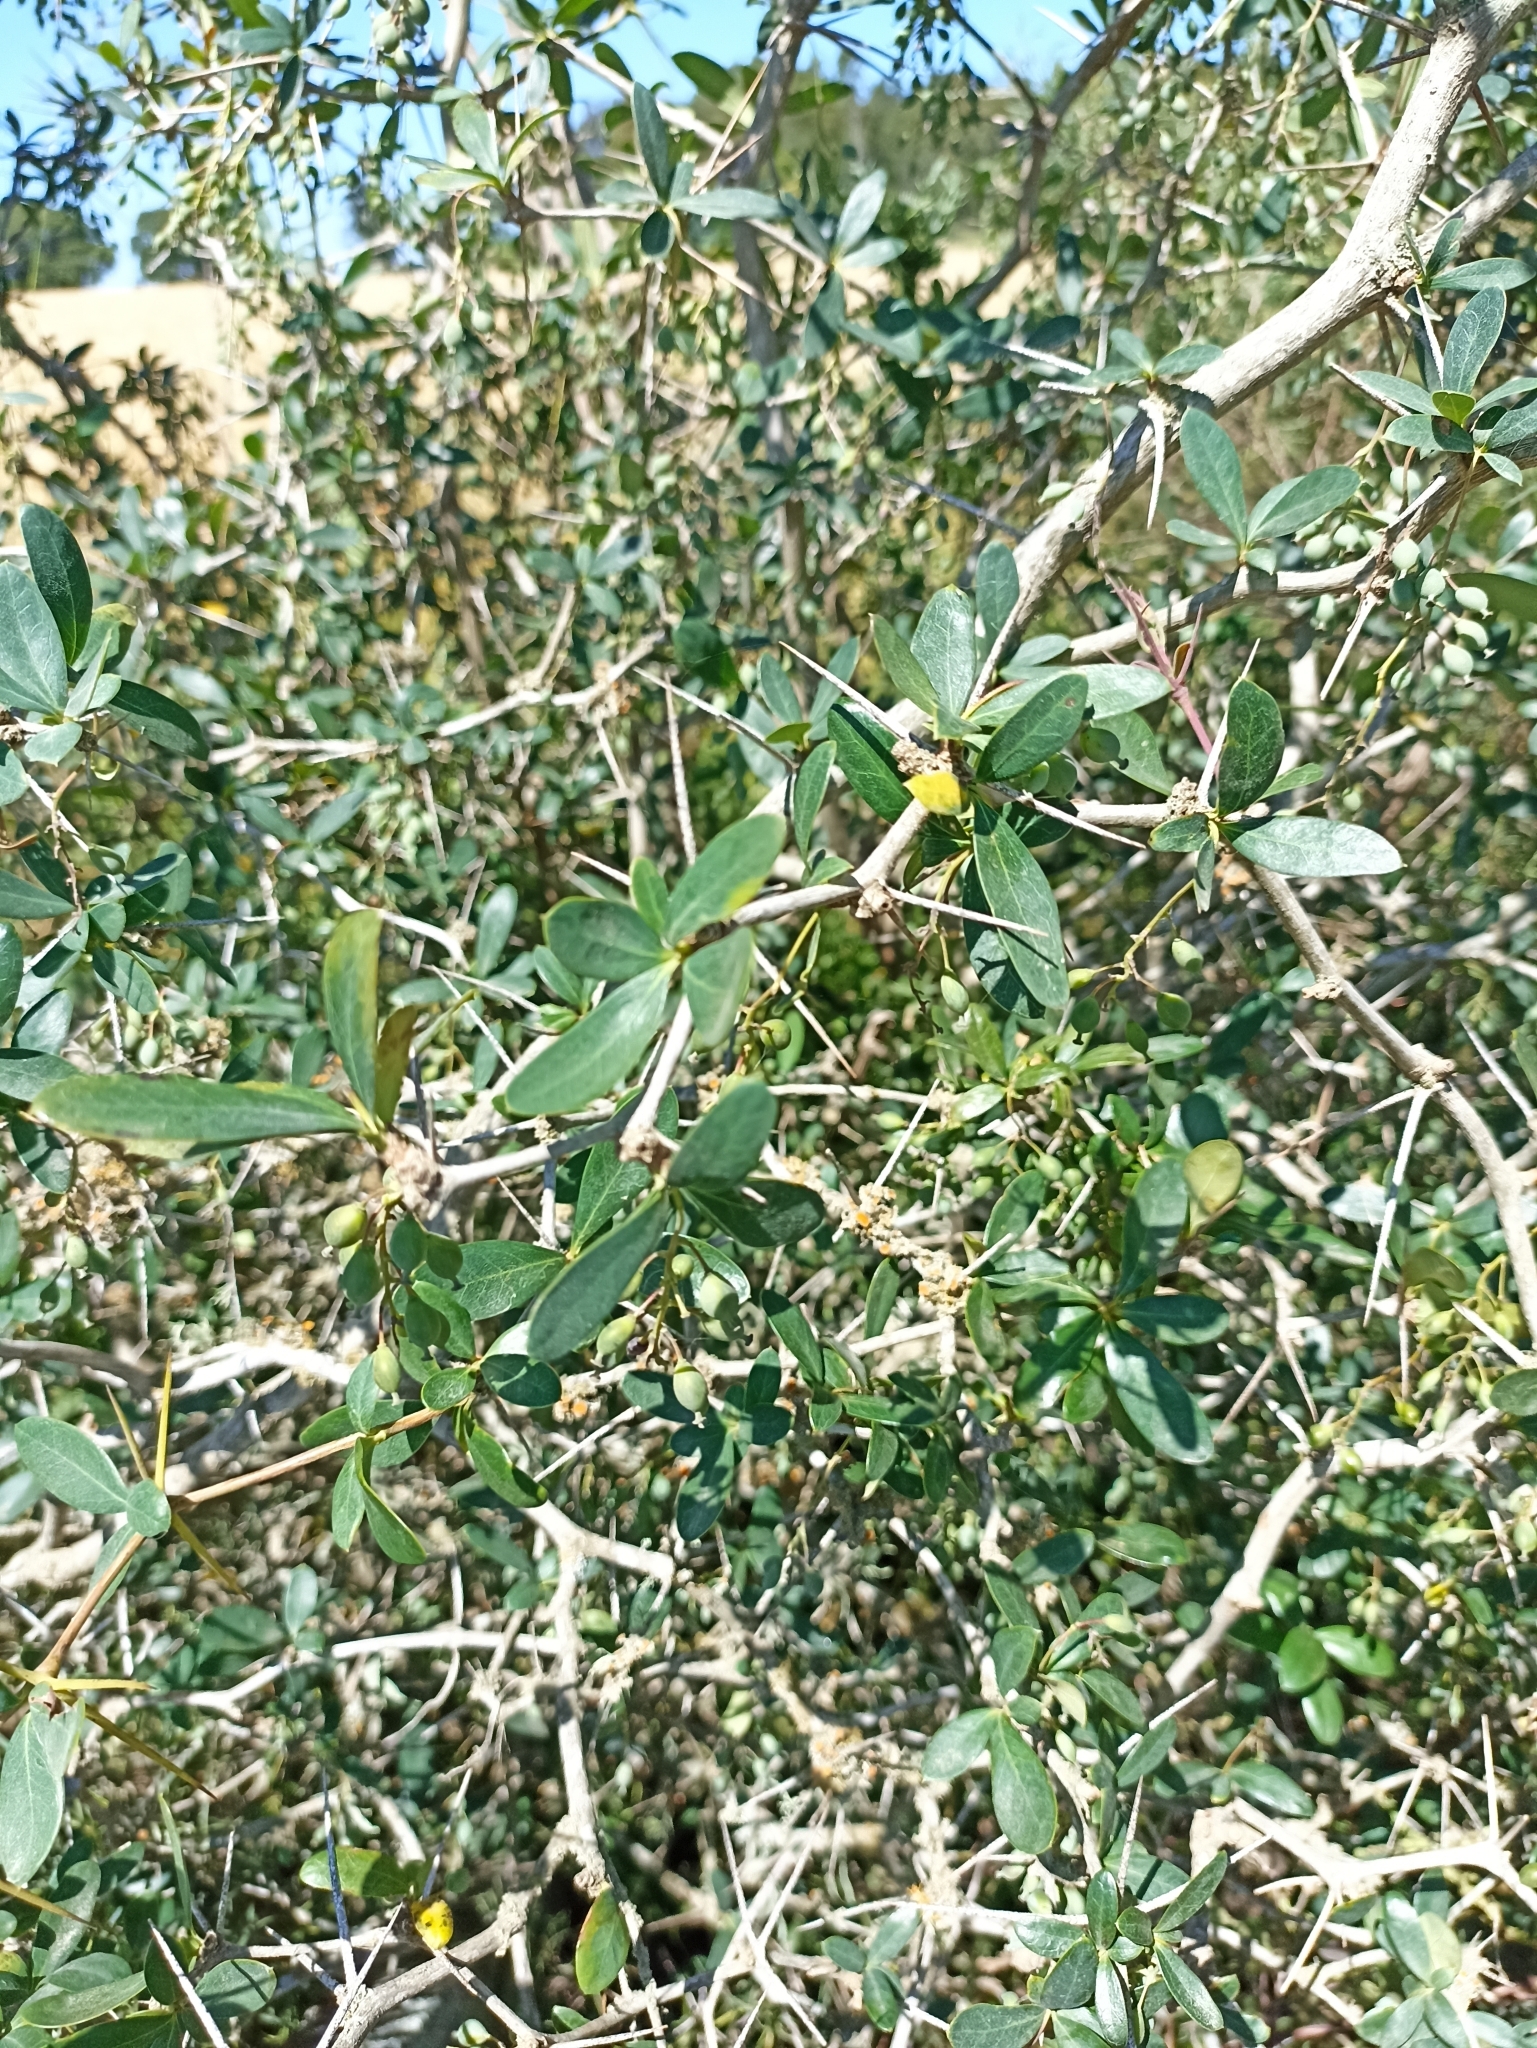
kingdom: Plantae
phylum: Tracheophyta
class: Magnoliopsida
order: Ranunculales
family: Berberidaceae
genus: Berberis
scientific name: Berberis laurina
